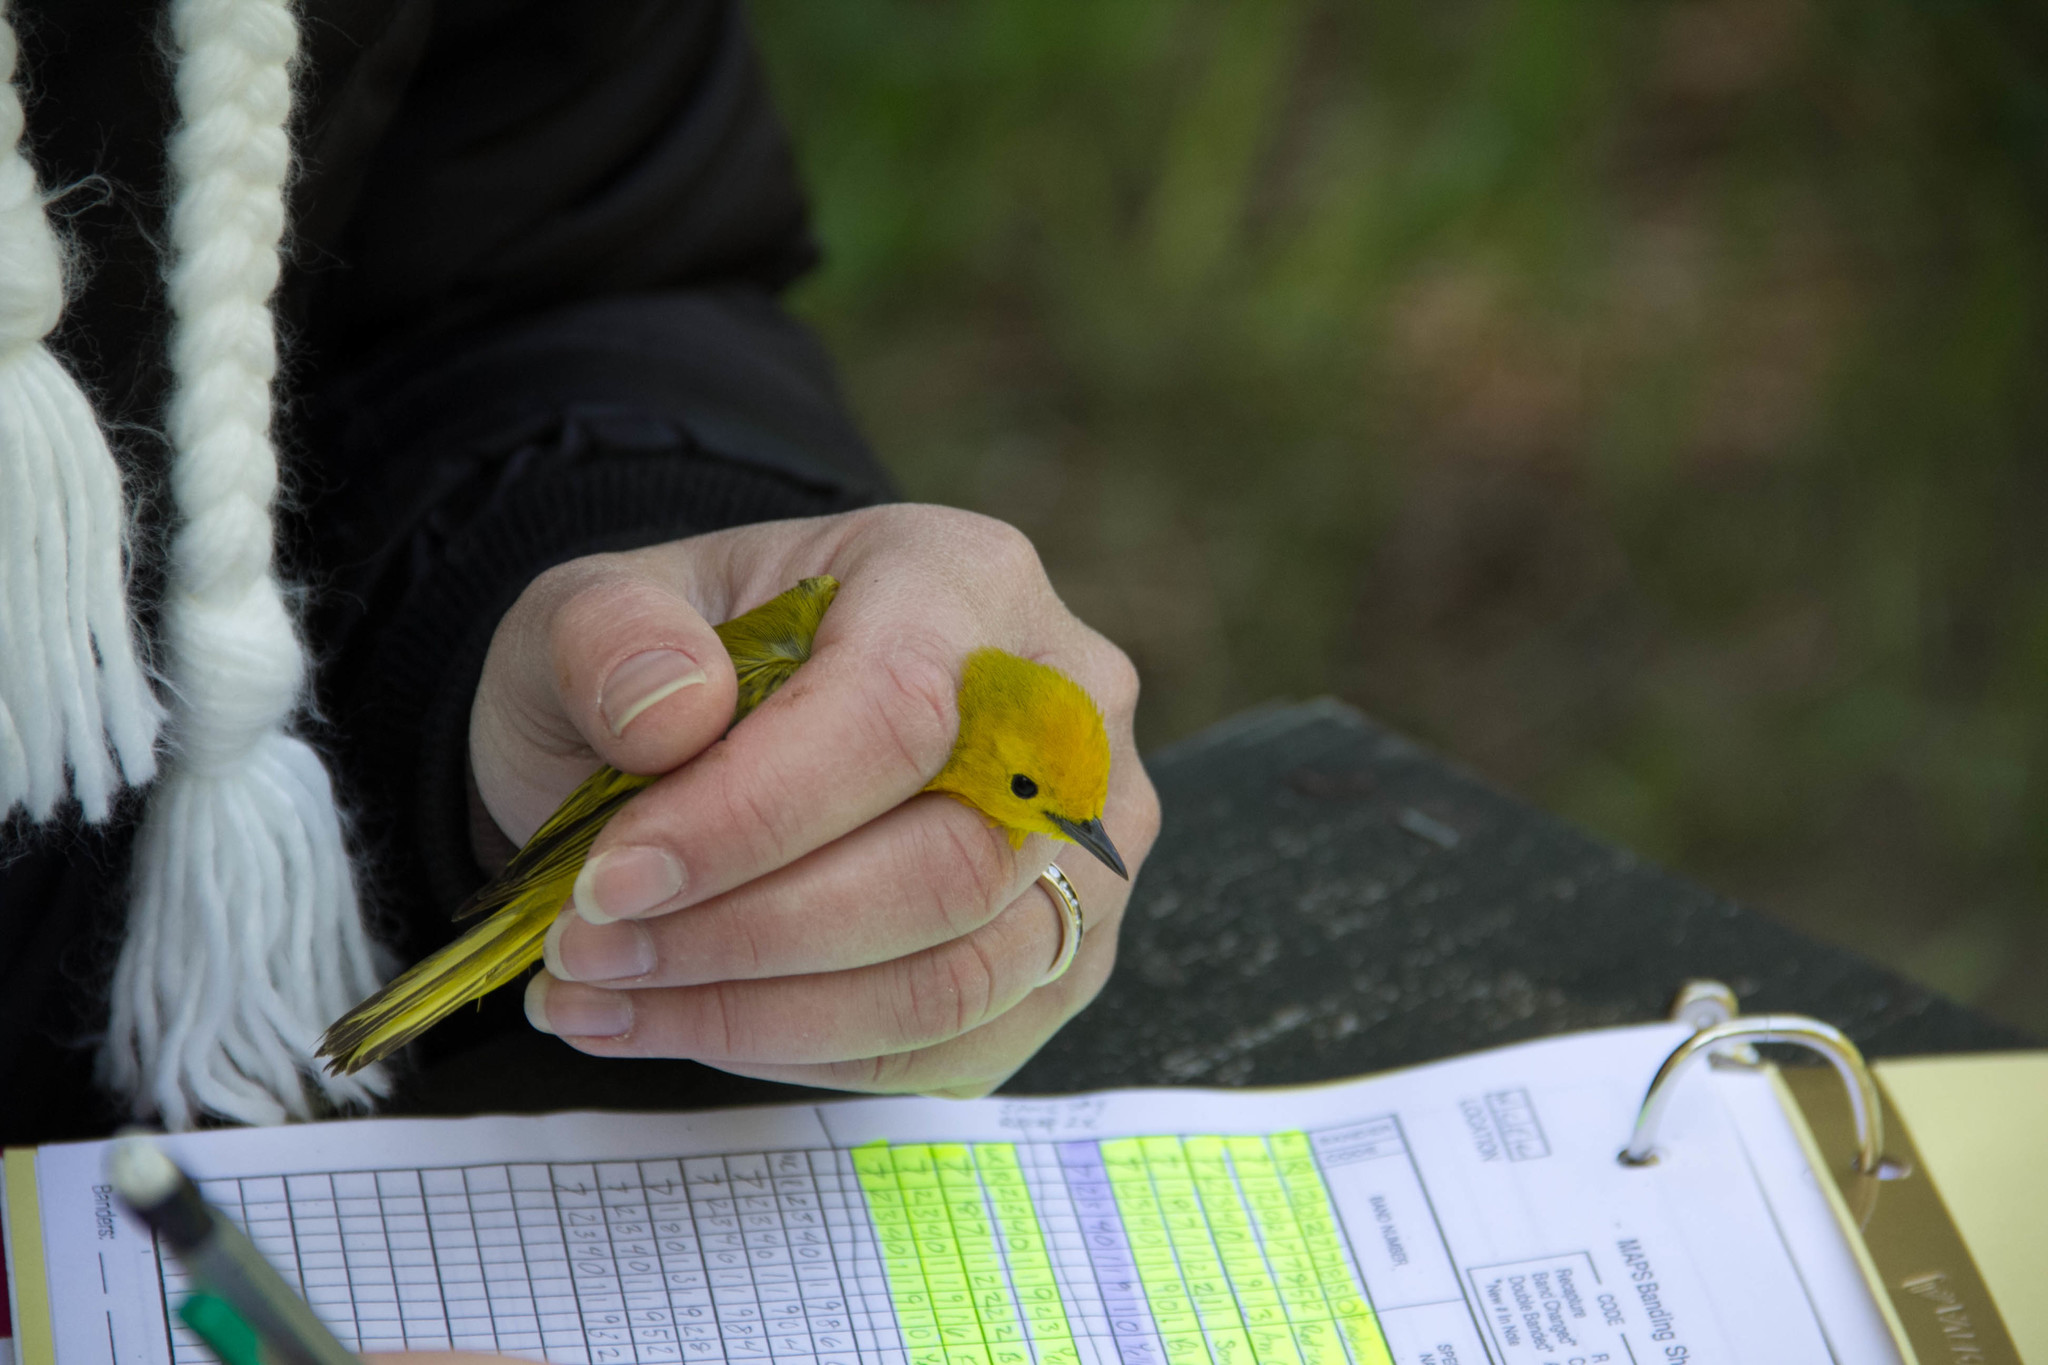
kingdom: Animalia
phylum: Chordata
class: Aves
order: Passeriformes
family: Parulidae
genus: Setophaga
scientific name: Setophaga petechia
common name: Yellow warbler
